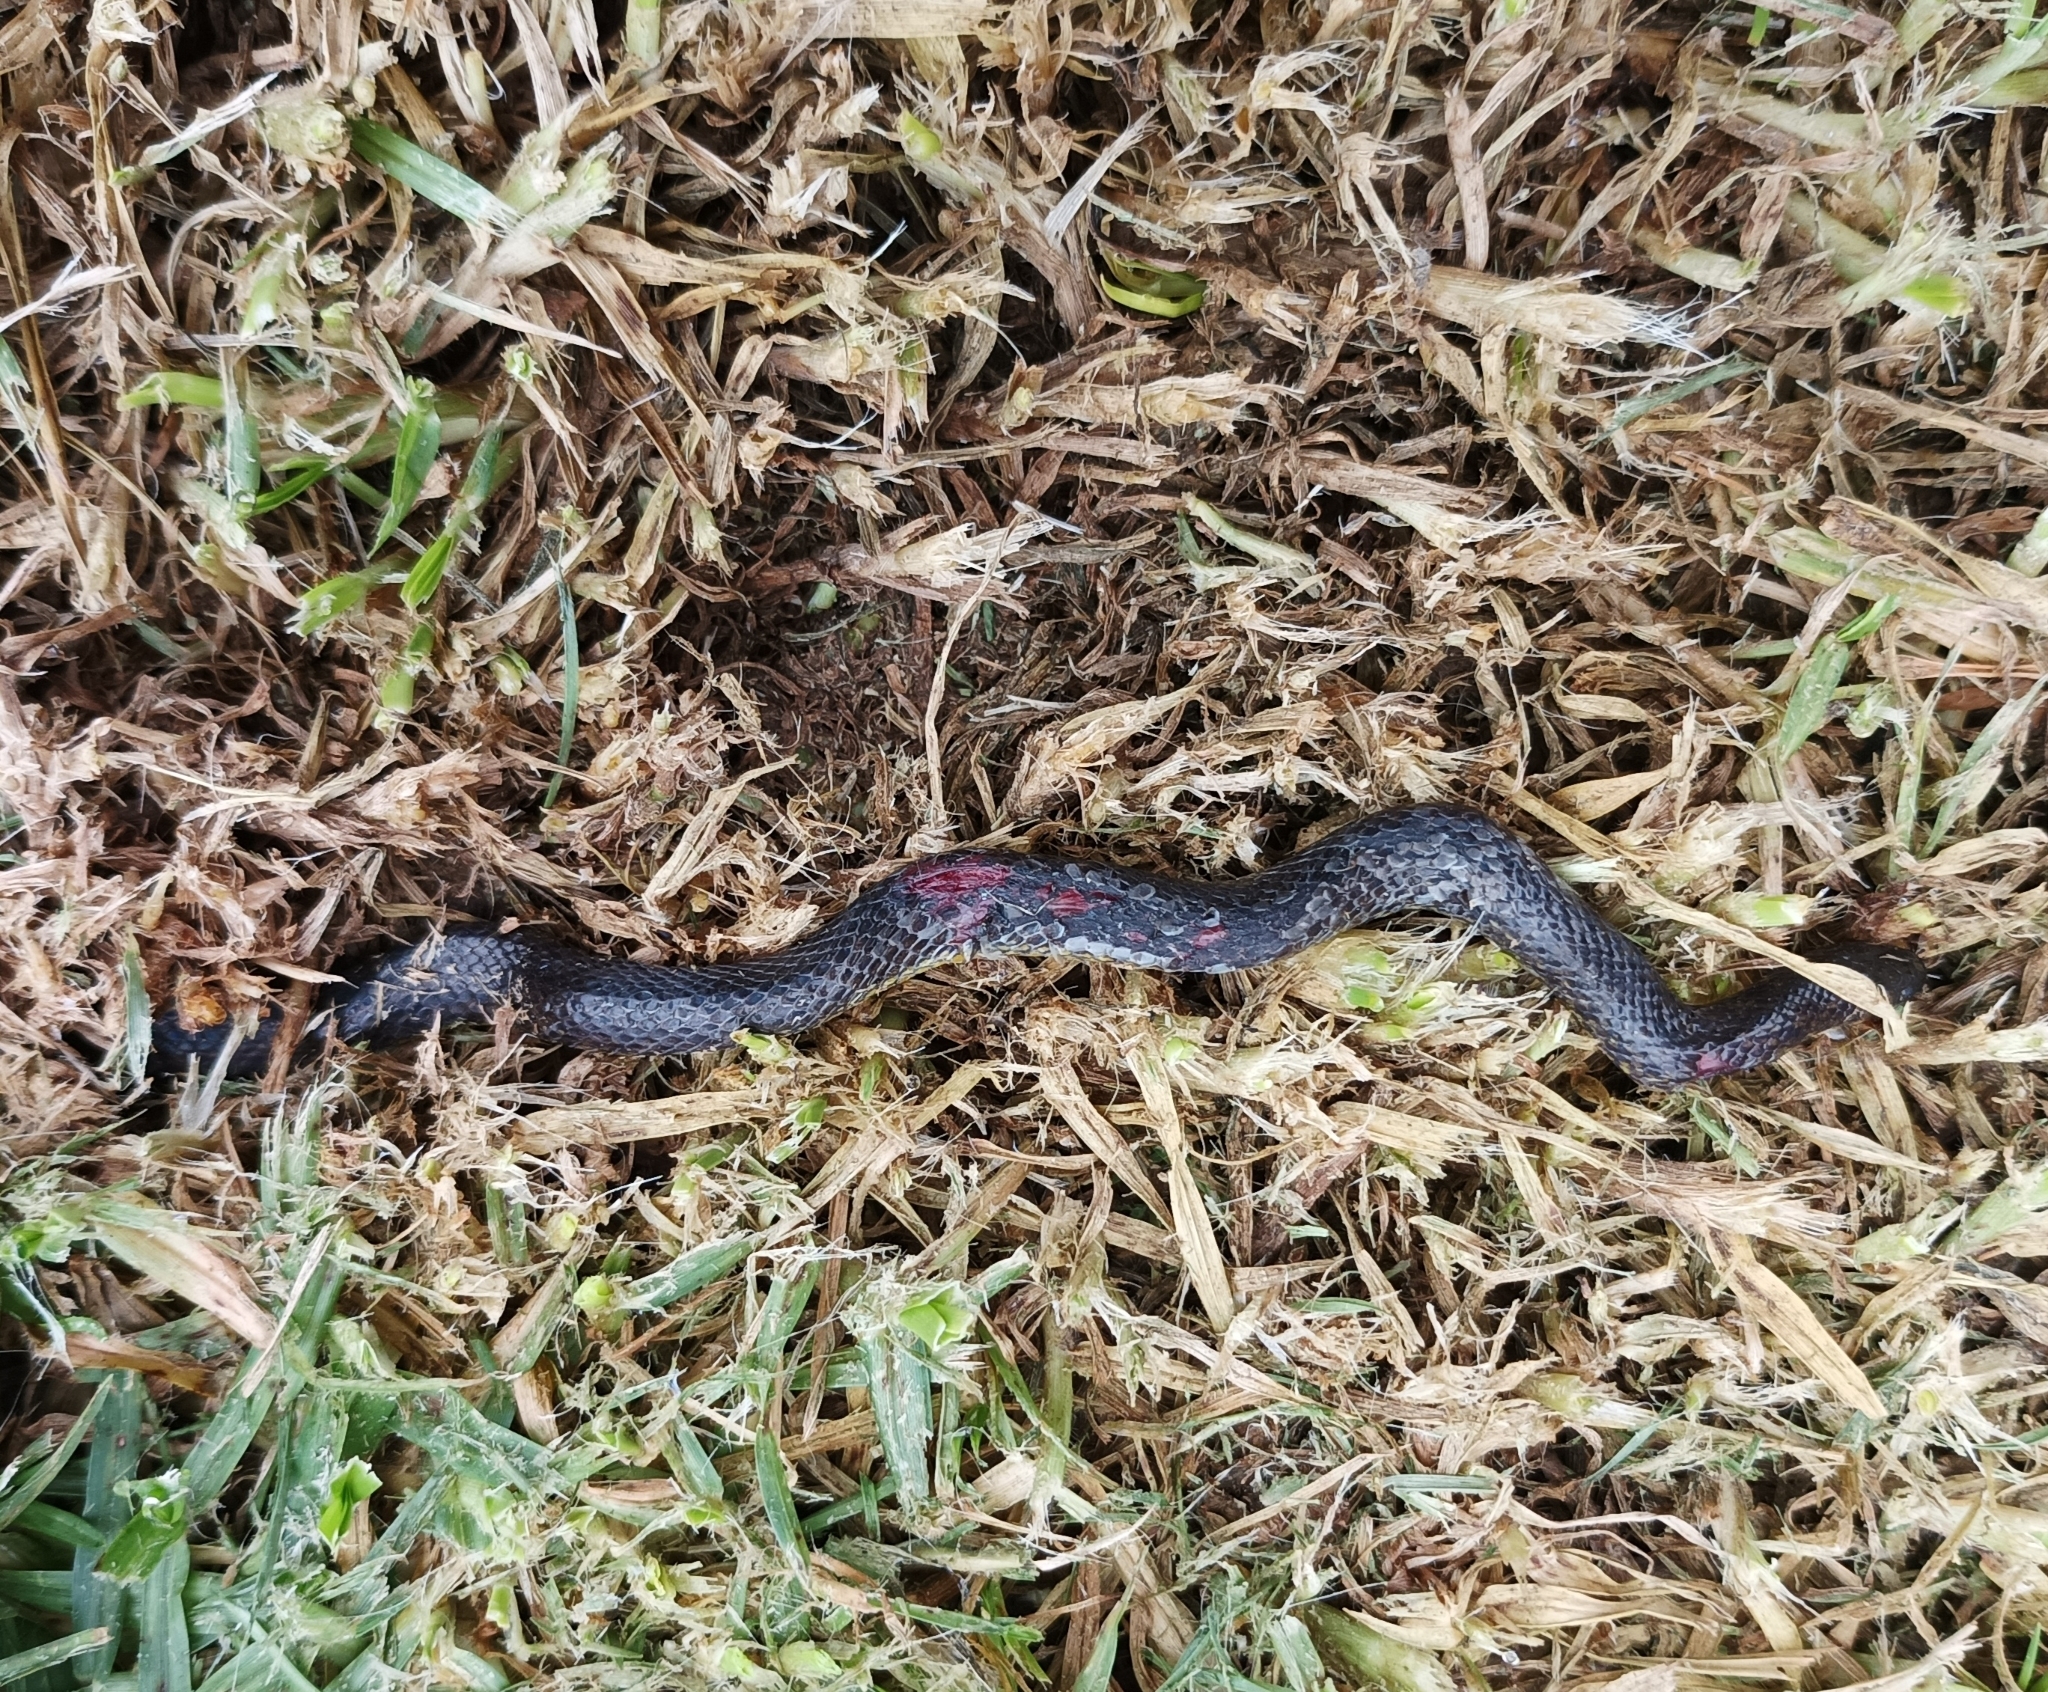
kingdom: Animalia
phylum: Chordata
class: Squamata
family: Colubridae
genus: Atractus
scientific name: Atractus crassicaudatus
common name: Thickhead ground snake
